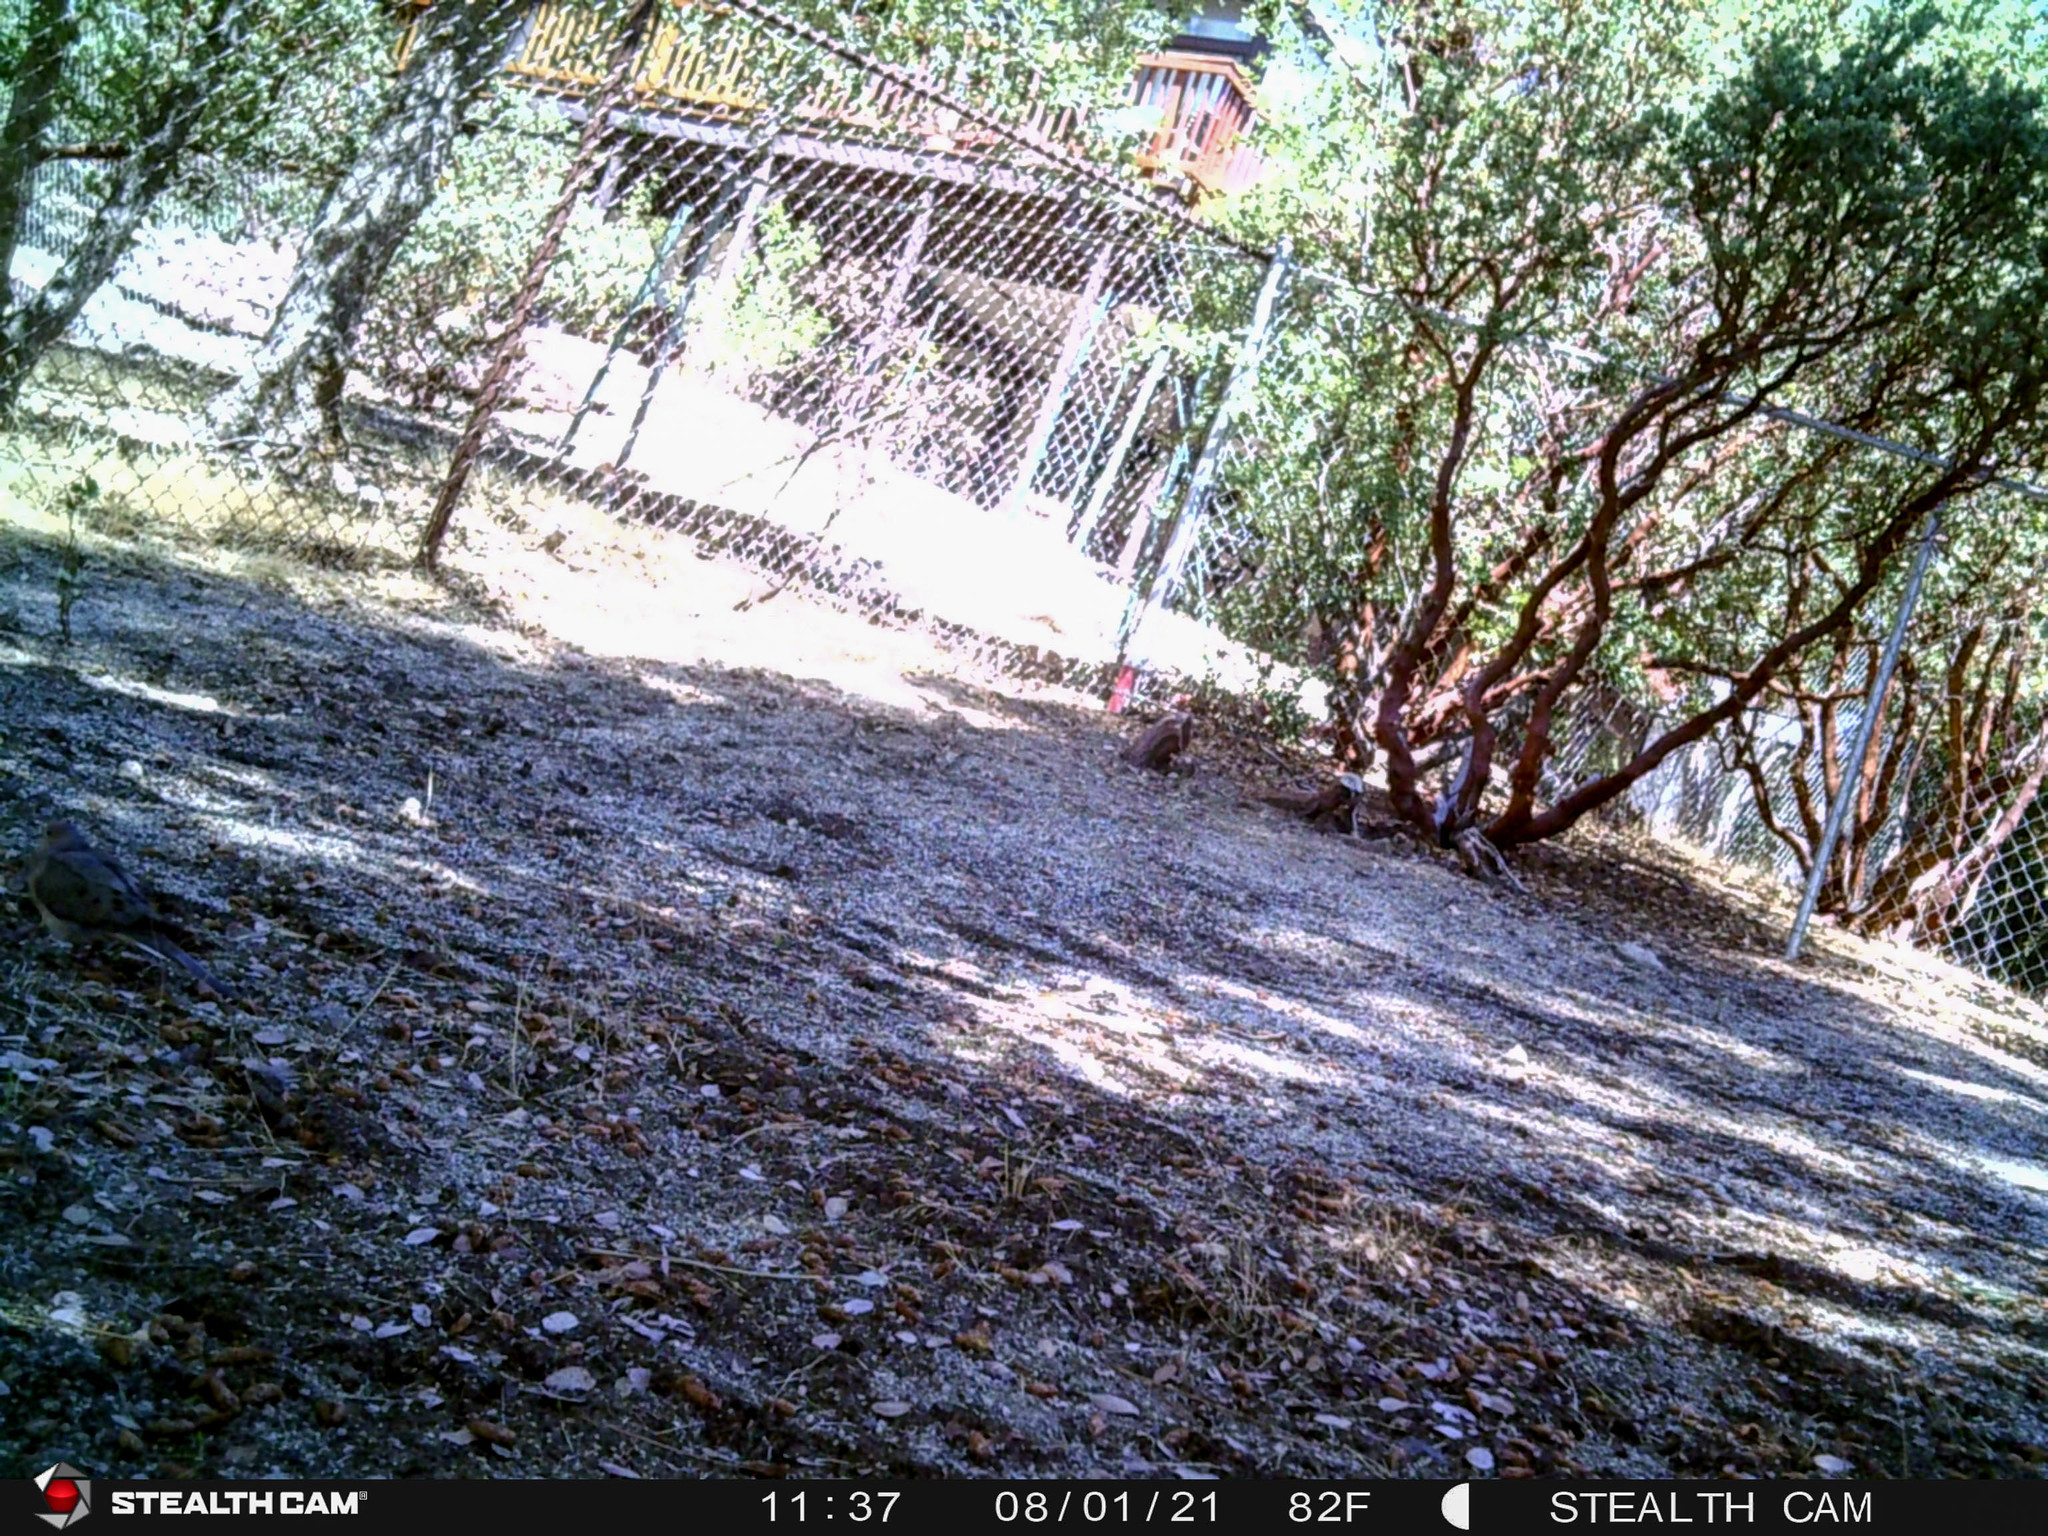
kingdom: Animalia
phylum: Chordata
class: Aves
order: Columbiformes
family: Columbidae
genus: Zenaida
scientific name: Zenaida macroura
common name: Mourning dove
